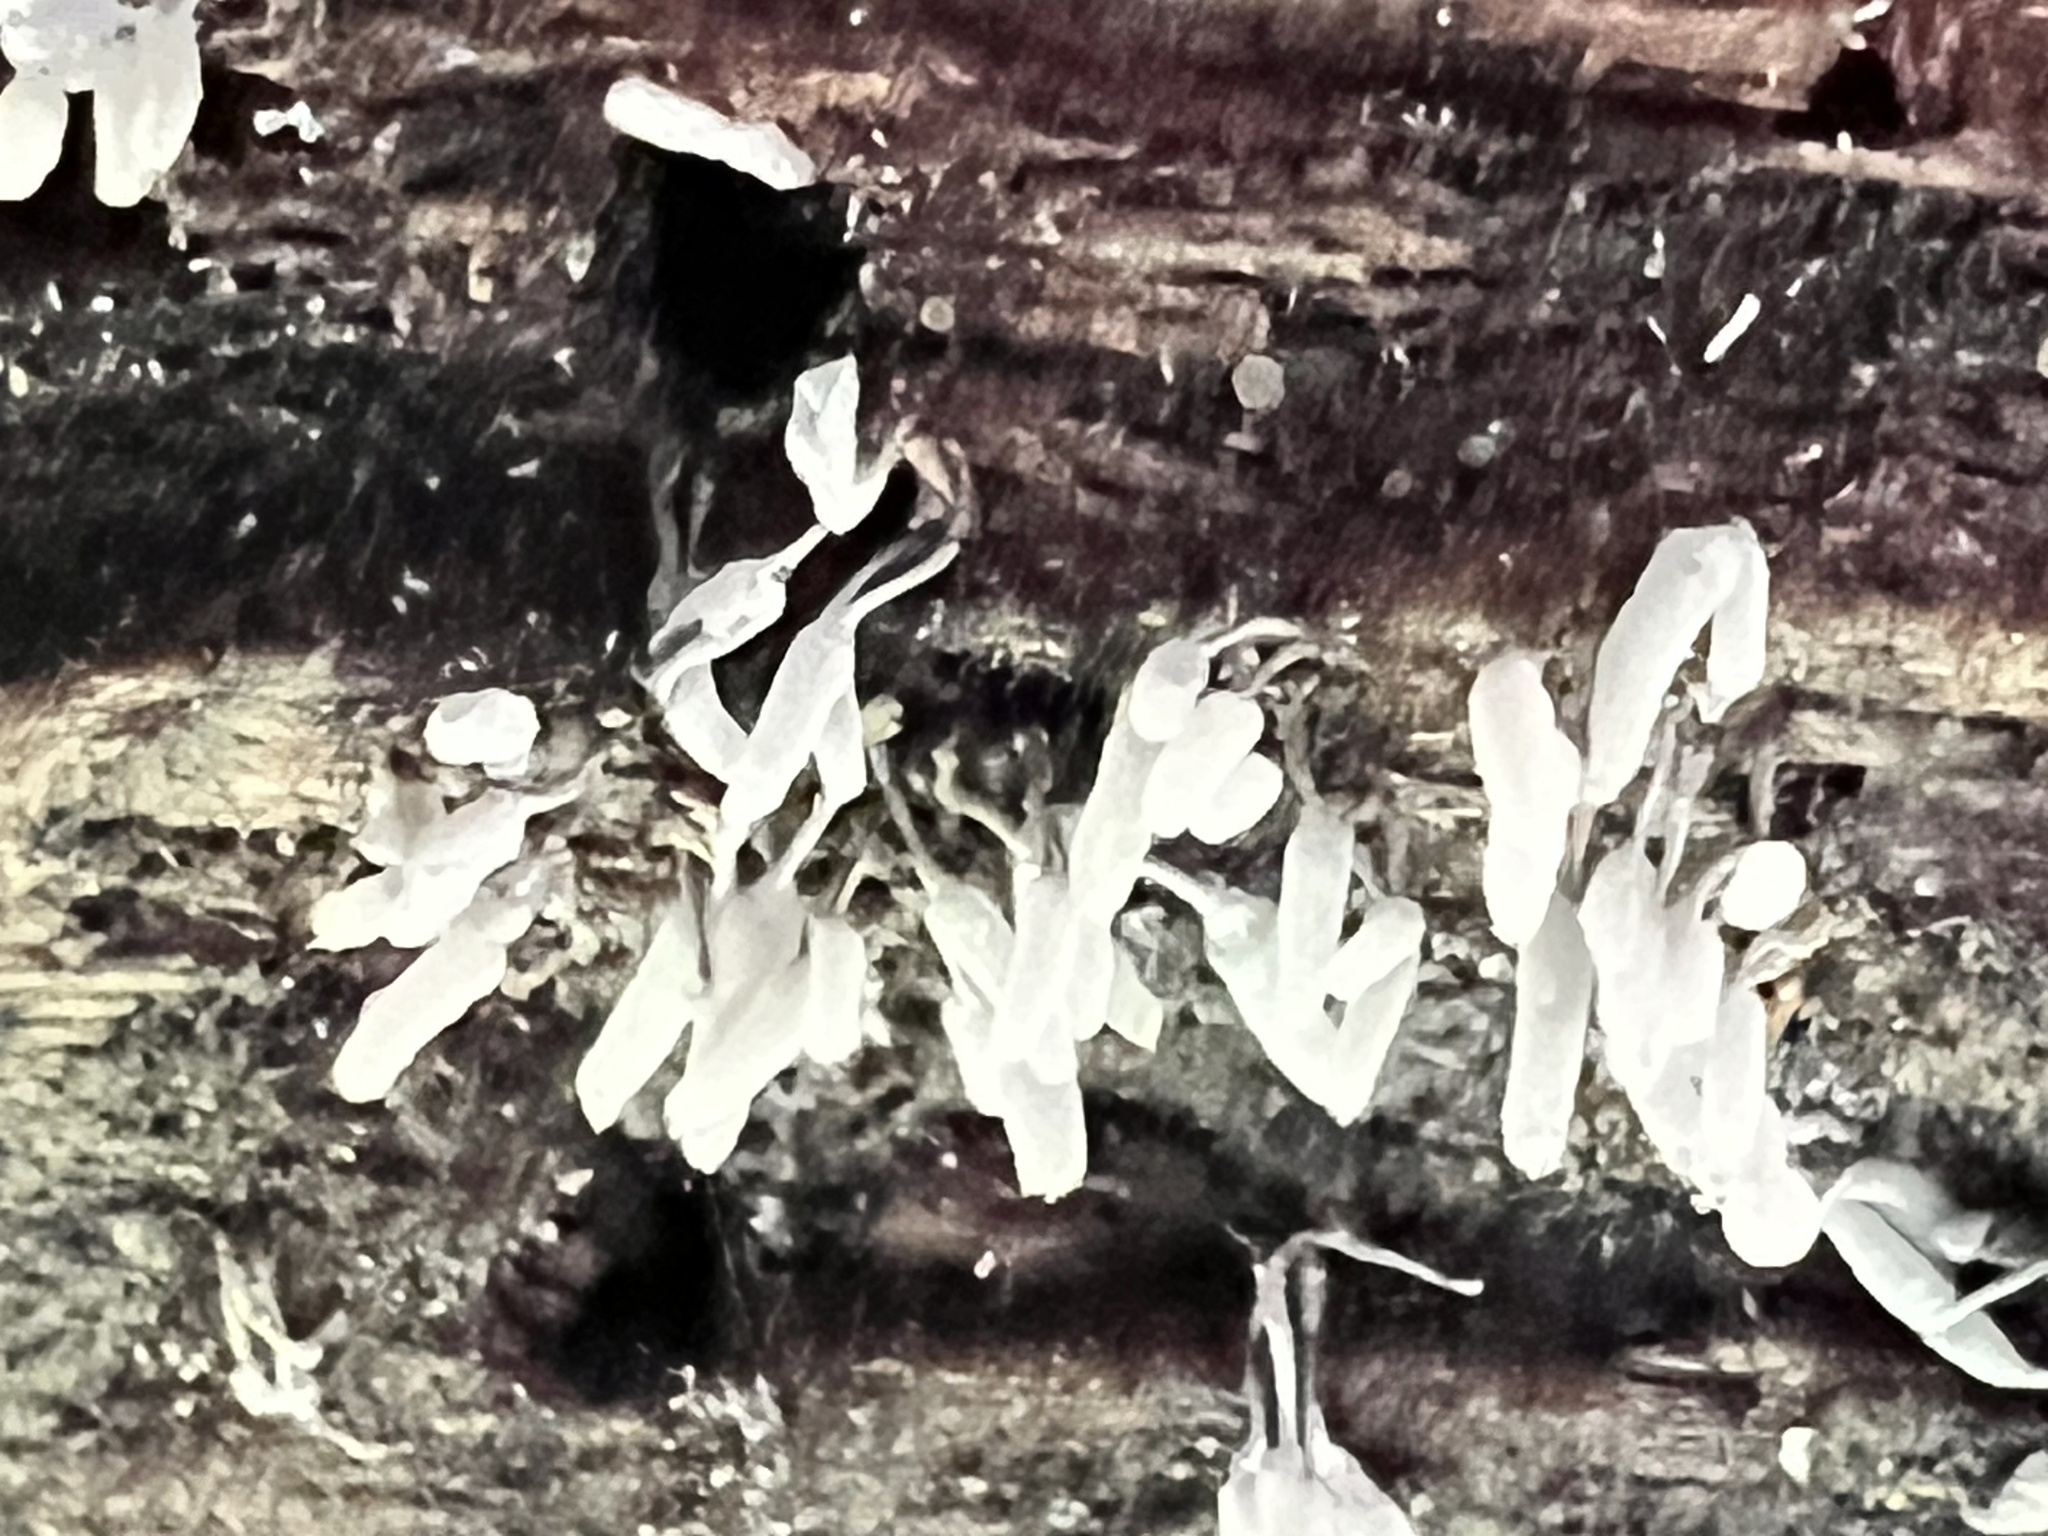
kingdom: Protozoa
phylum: Mycetozoa
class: Myxomycetes
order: Trichiales
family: Arcyriaceae
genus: Arcyria
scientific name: Arcyria cinerea
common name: White carnival candy slime mold
